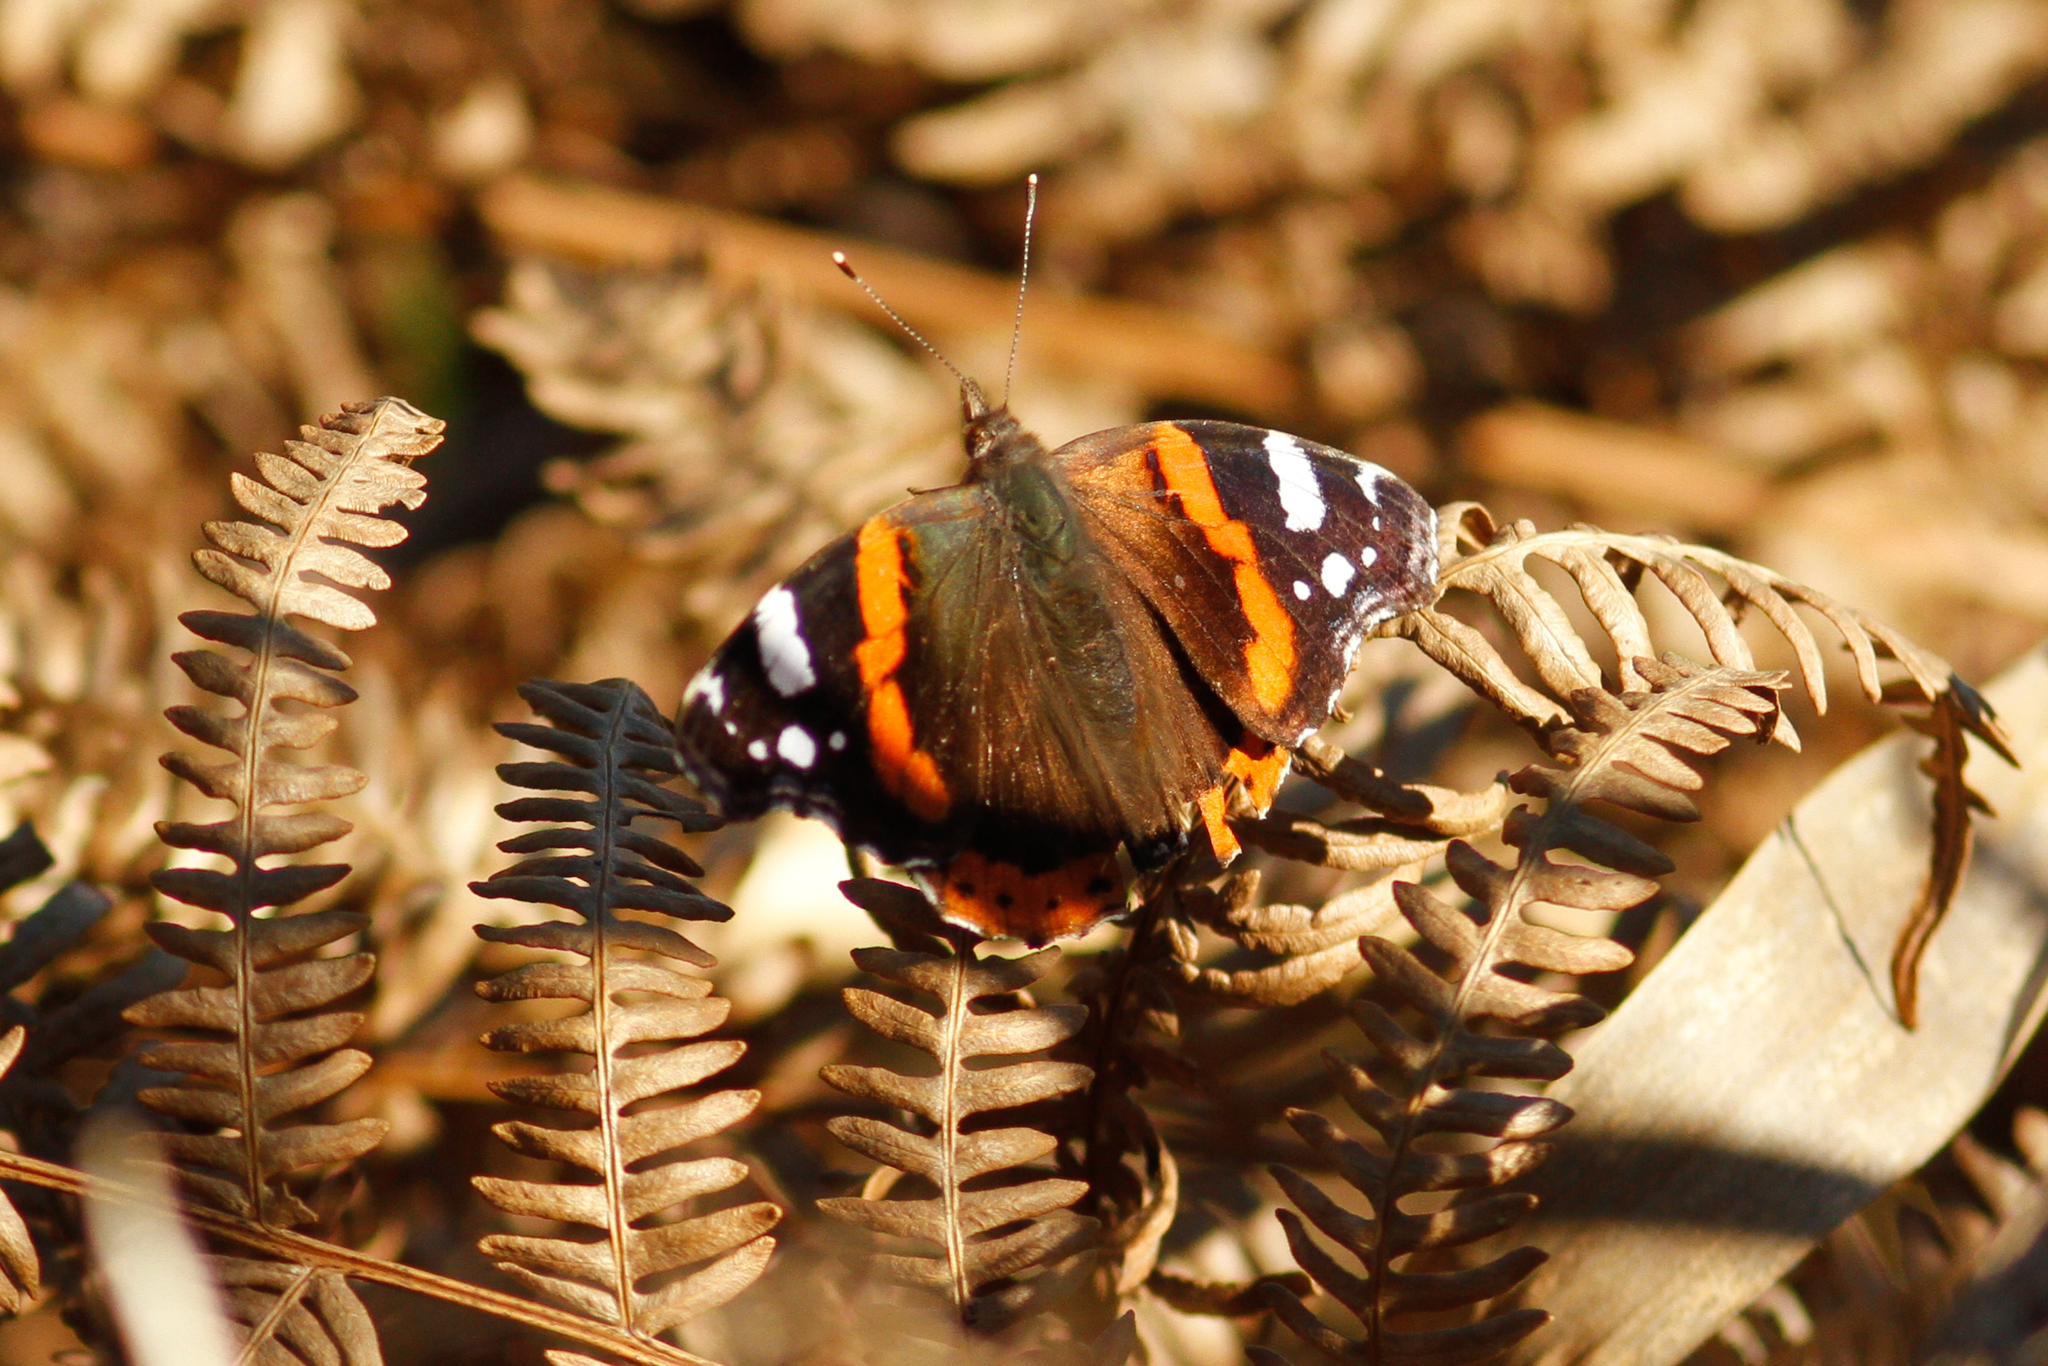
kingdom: Animalia
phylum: Arthropoda
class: Insecta
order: Lepidoptera
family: Nymphalidae
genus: Vanessa
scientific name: Vanessa atalanta
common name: Red admiral
